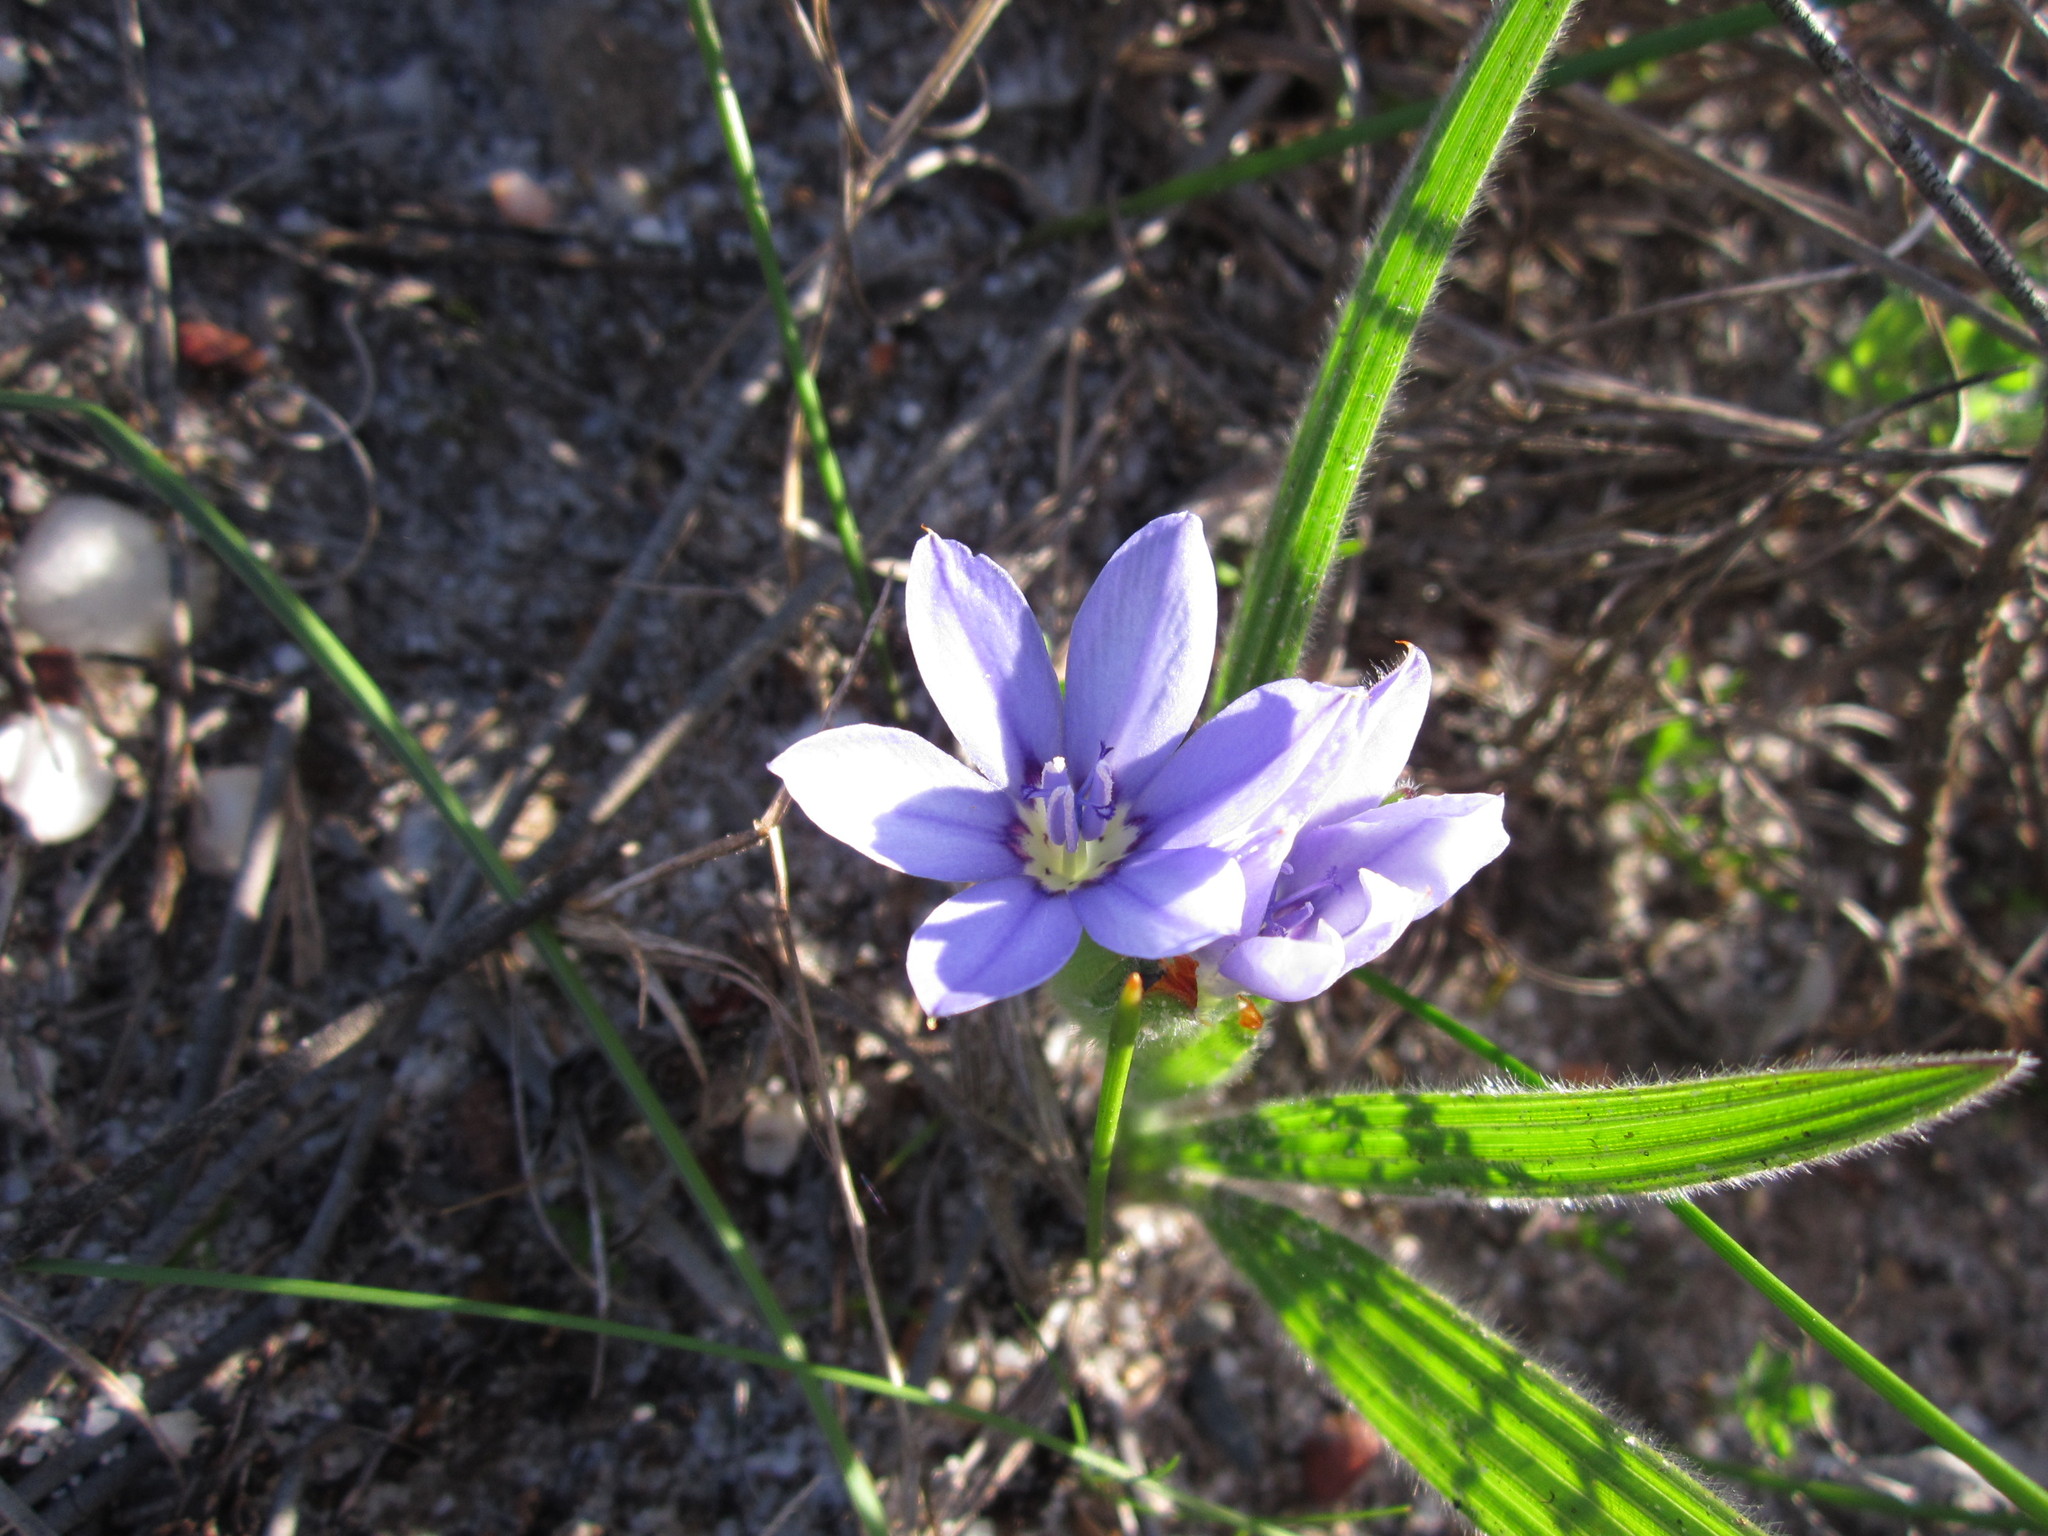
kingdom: Plantae
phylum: Tracheophyta
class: Liliopsida
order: Asparagales
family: Iridaceae
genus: Babiana
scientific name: Babiana villosula
